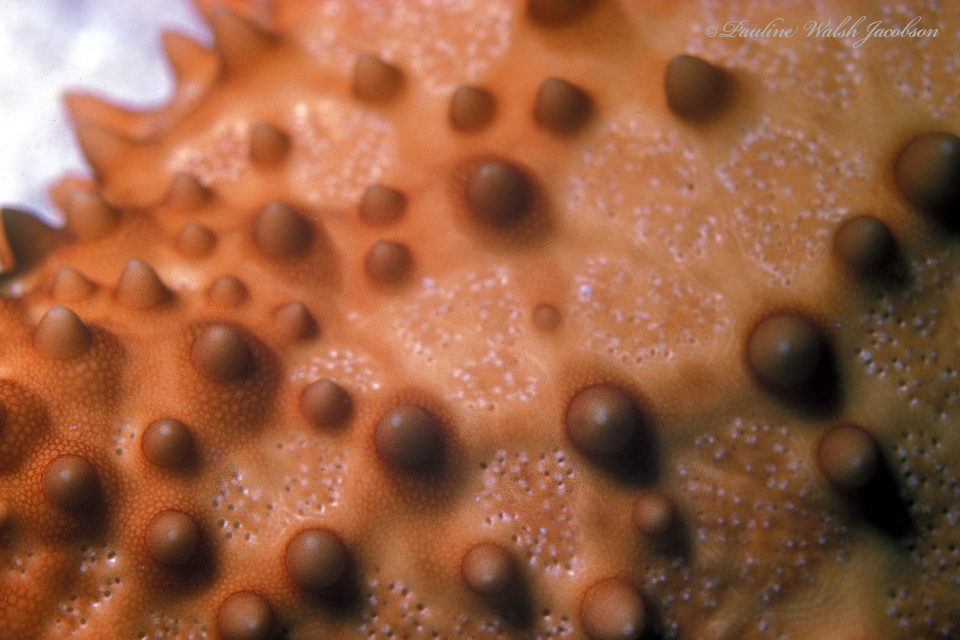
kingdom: Animalia
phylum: Echinodermata
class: Asteroidea
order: Valvatida
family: Oreasteridae
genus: Oreaster
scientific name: Oreaster reticulatus
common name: Cushion sea star
